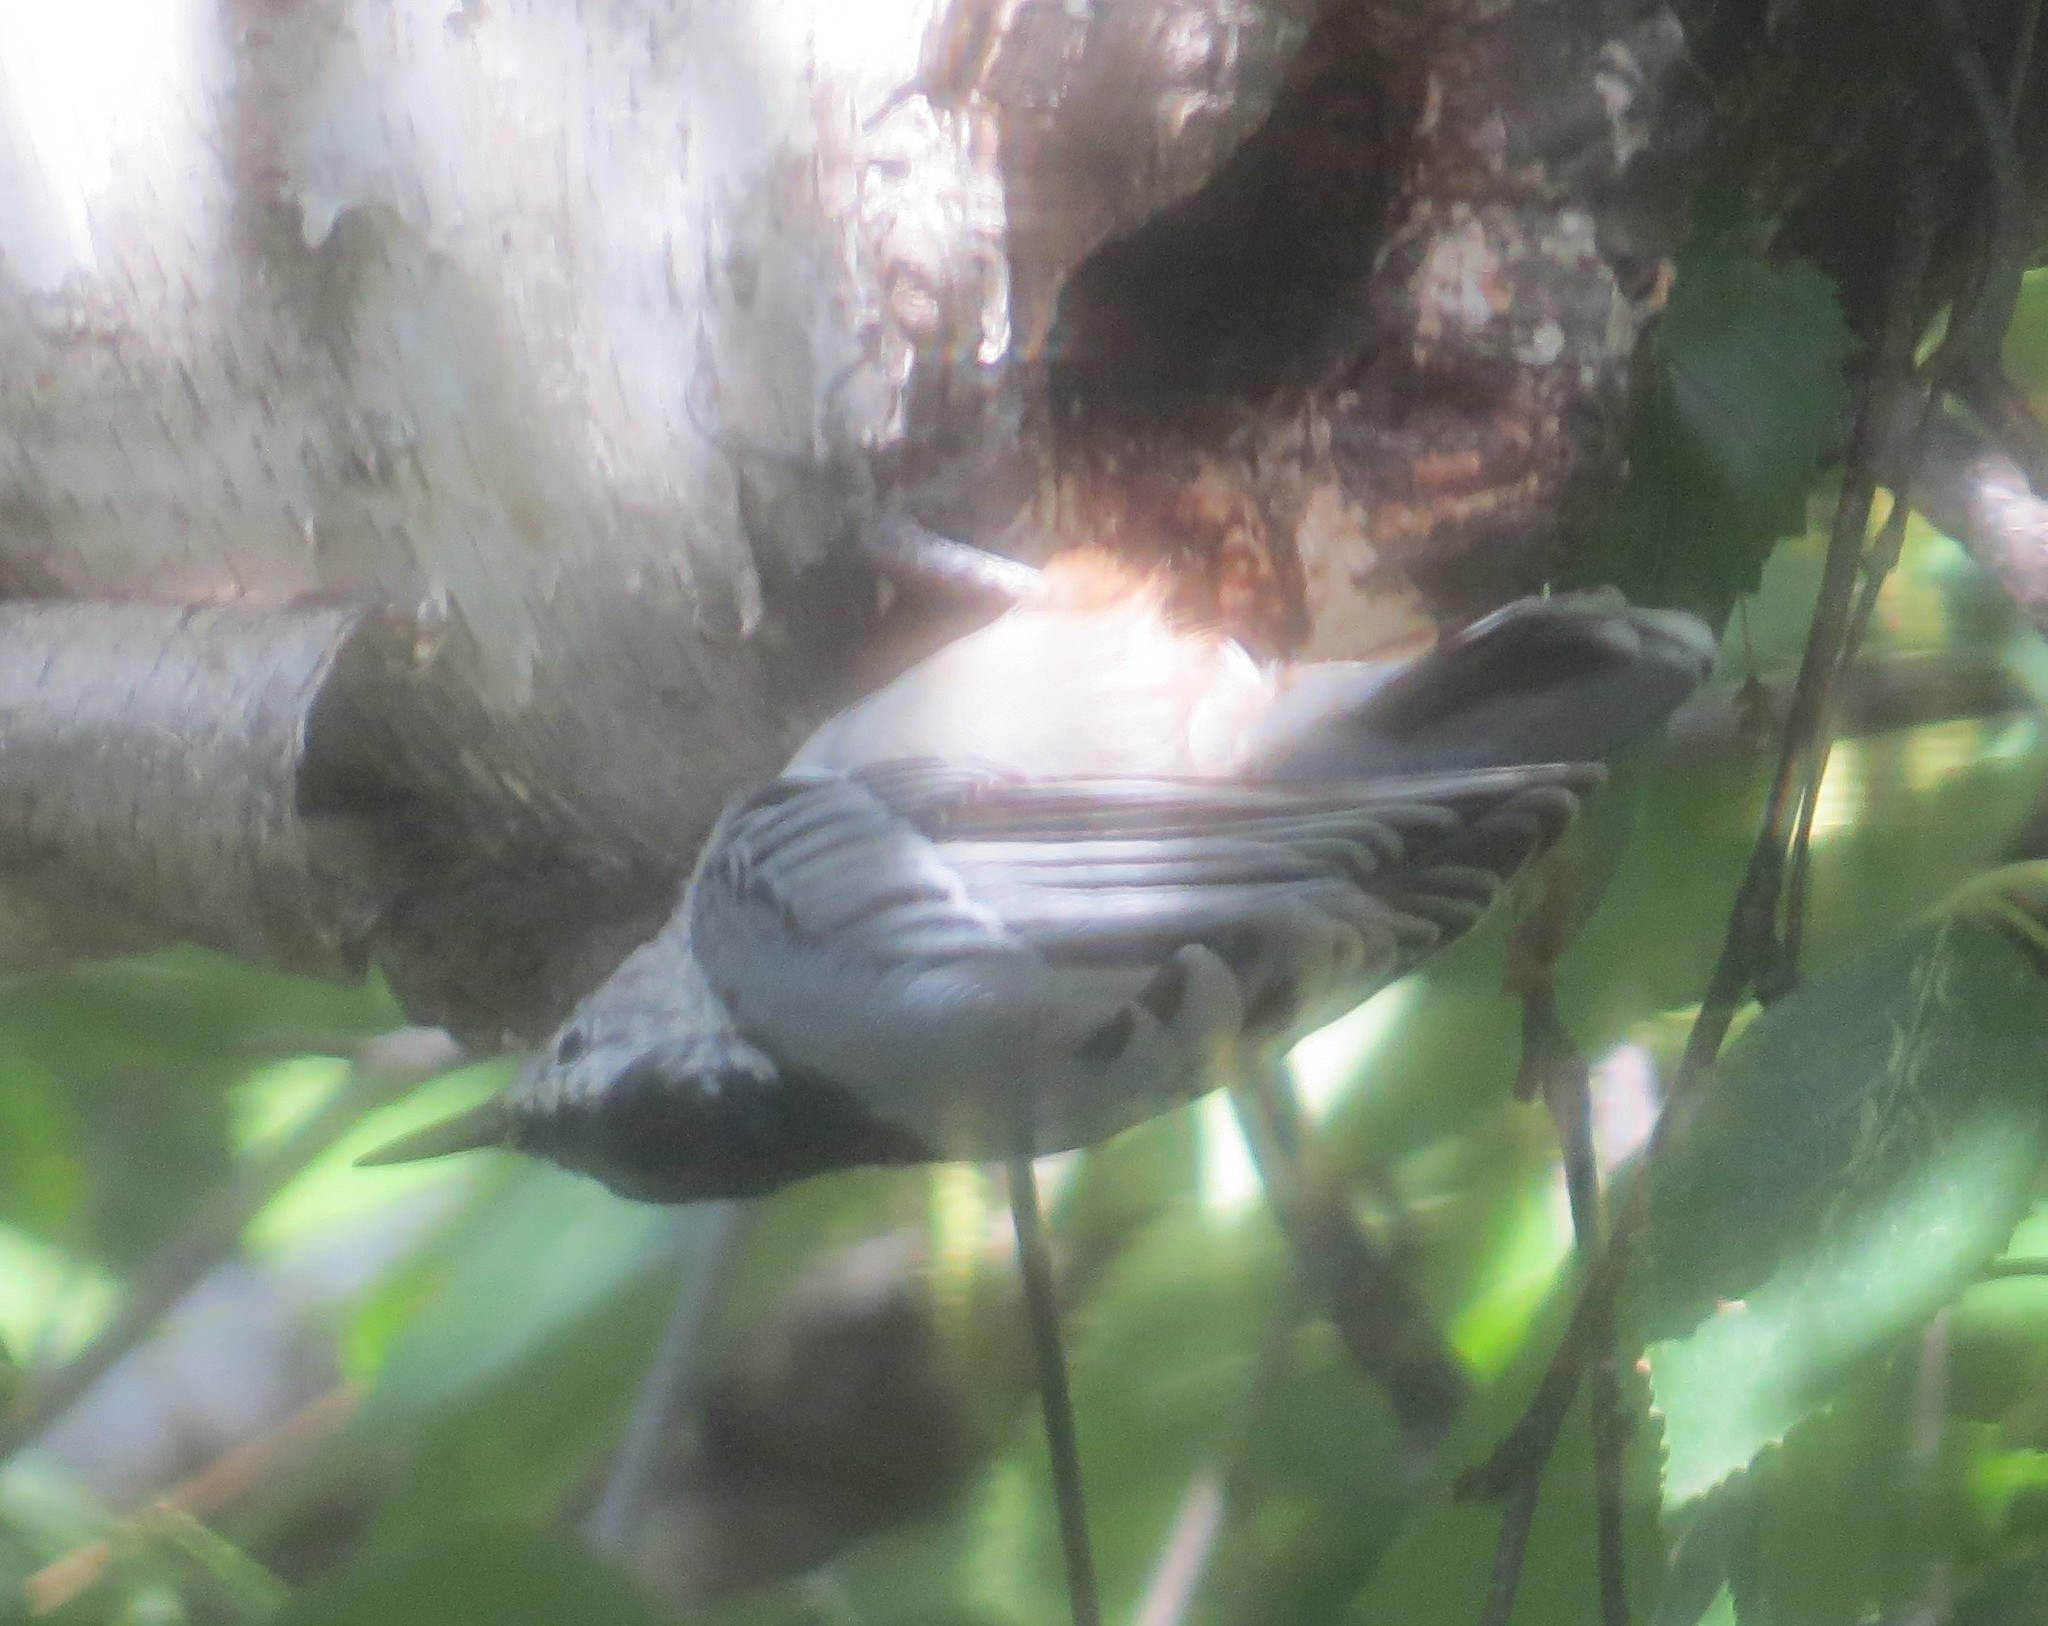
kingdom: Animalia
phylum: Chordata
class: Aves
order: Passeriformes
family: Sittidae
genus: Sitta
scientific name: Sitta carolinensis
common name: White-breasted nuthatch
